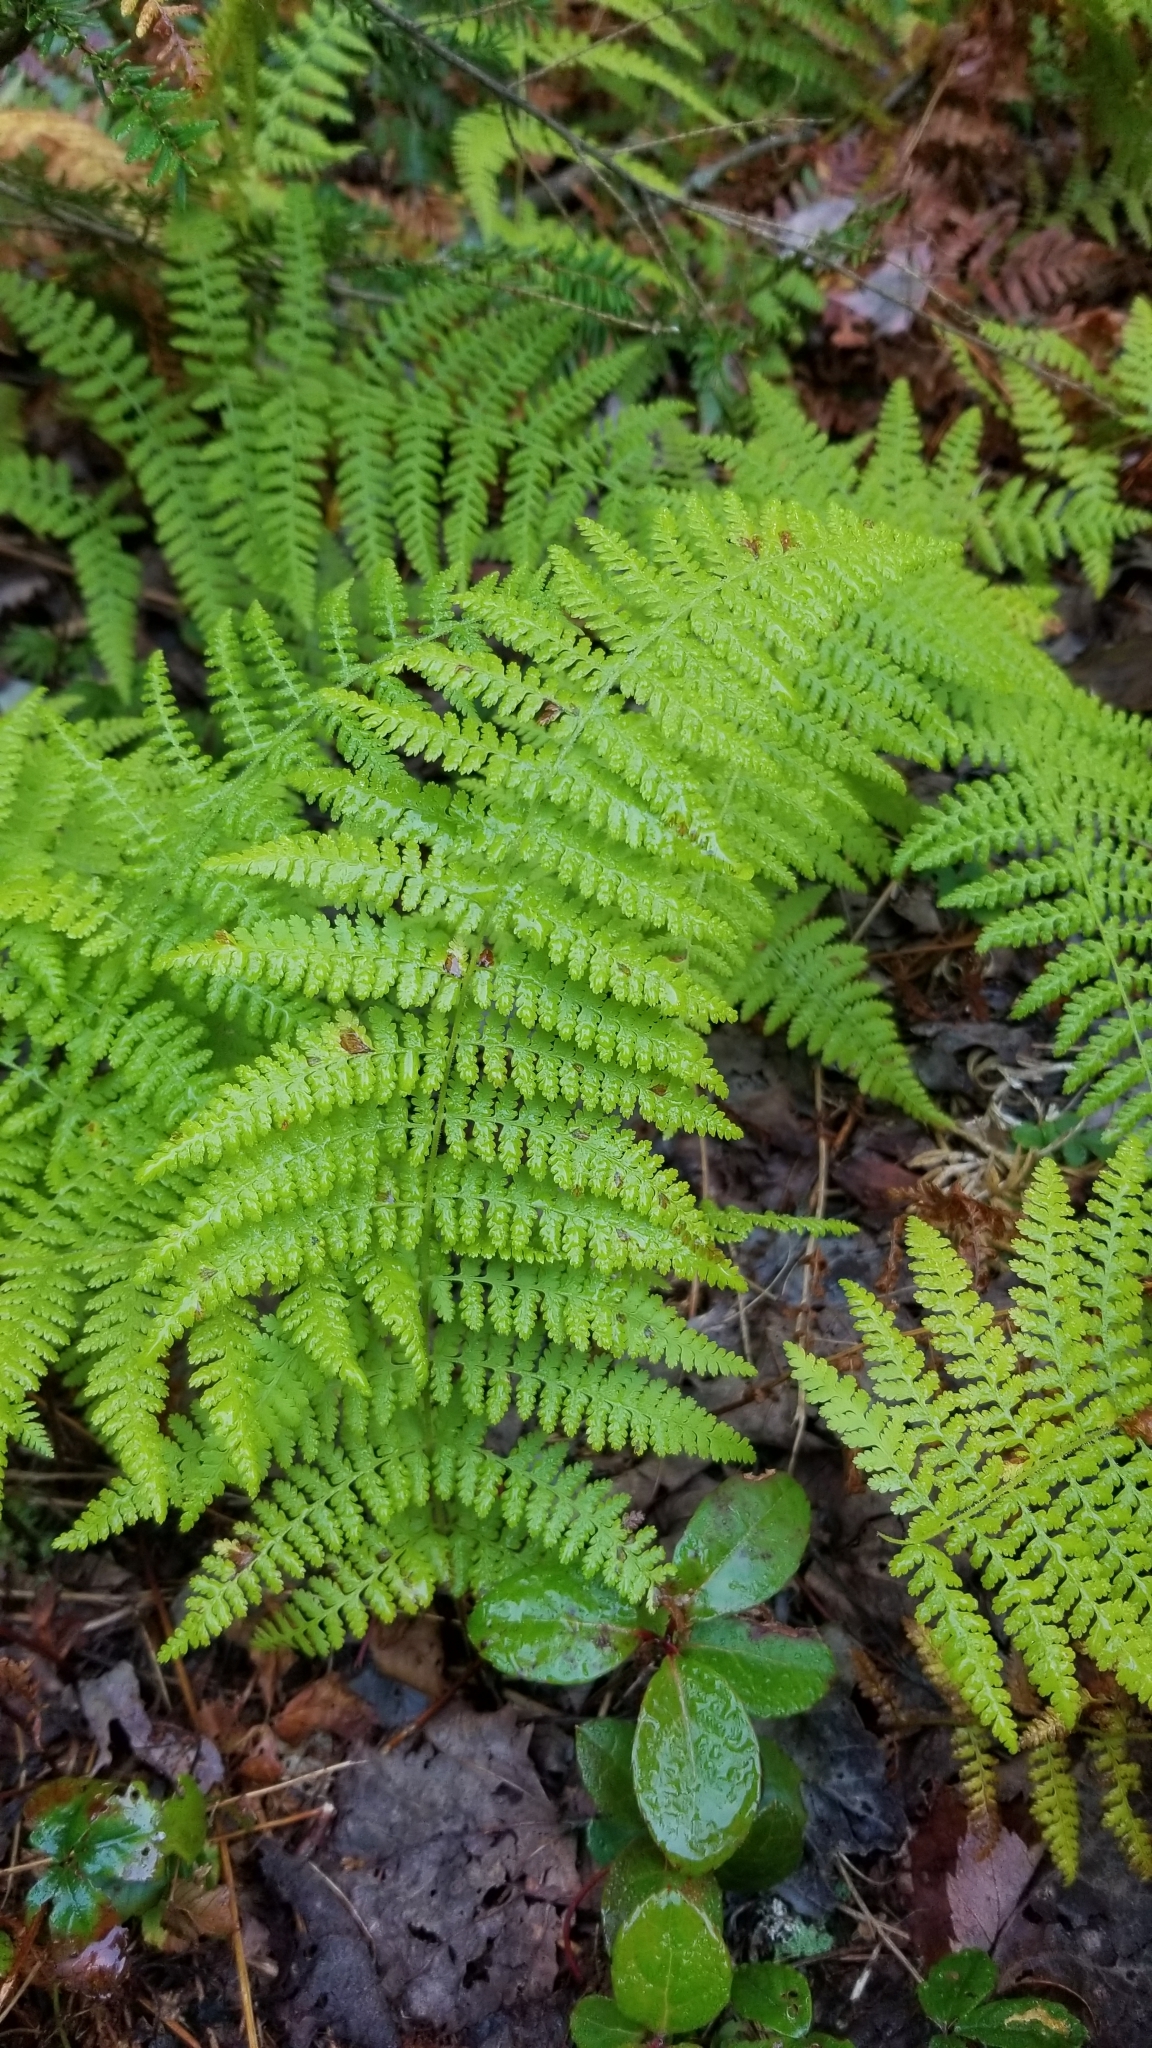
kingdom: Plantae
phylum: Tracheophyta
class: Polypodiopsida
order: Polypodiales
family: Dennstaedtiaceae
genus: Sitobolium
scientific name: Sitobolium punctilobum
